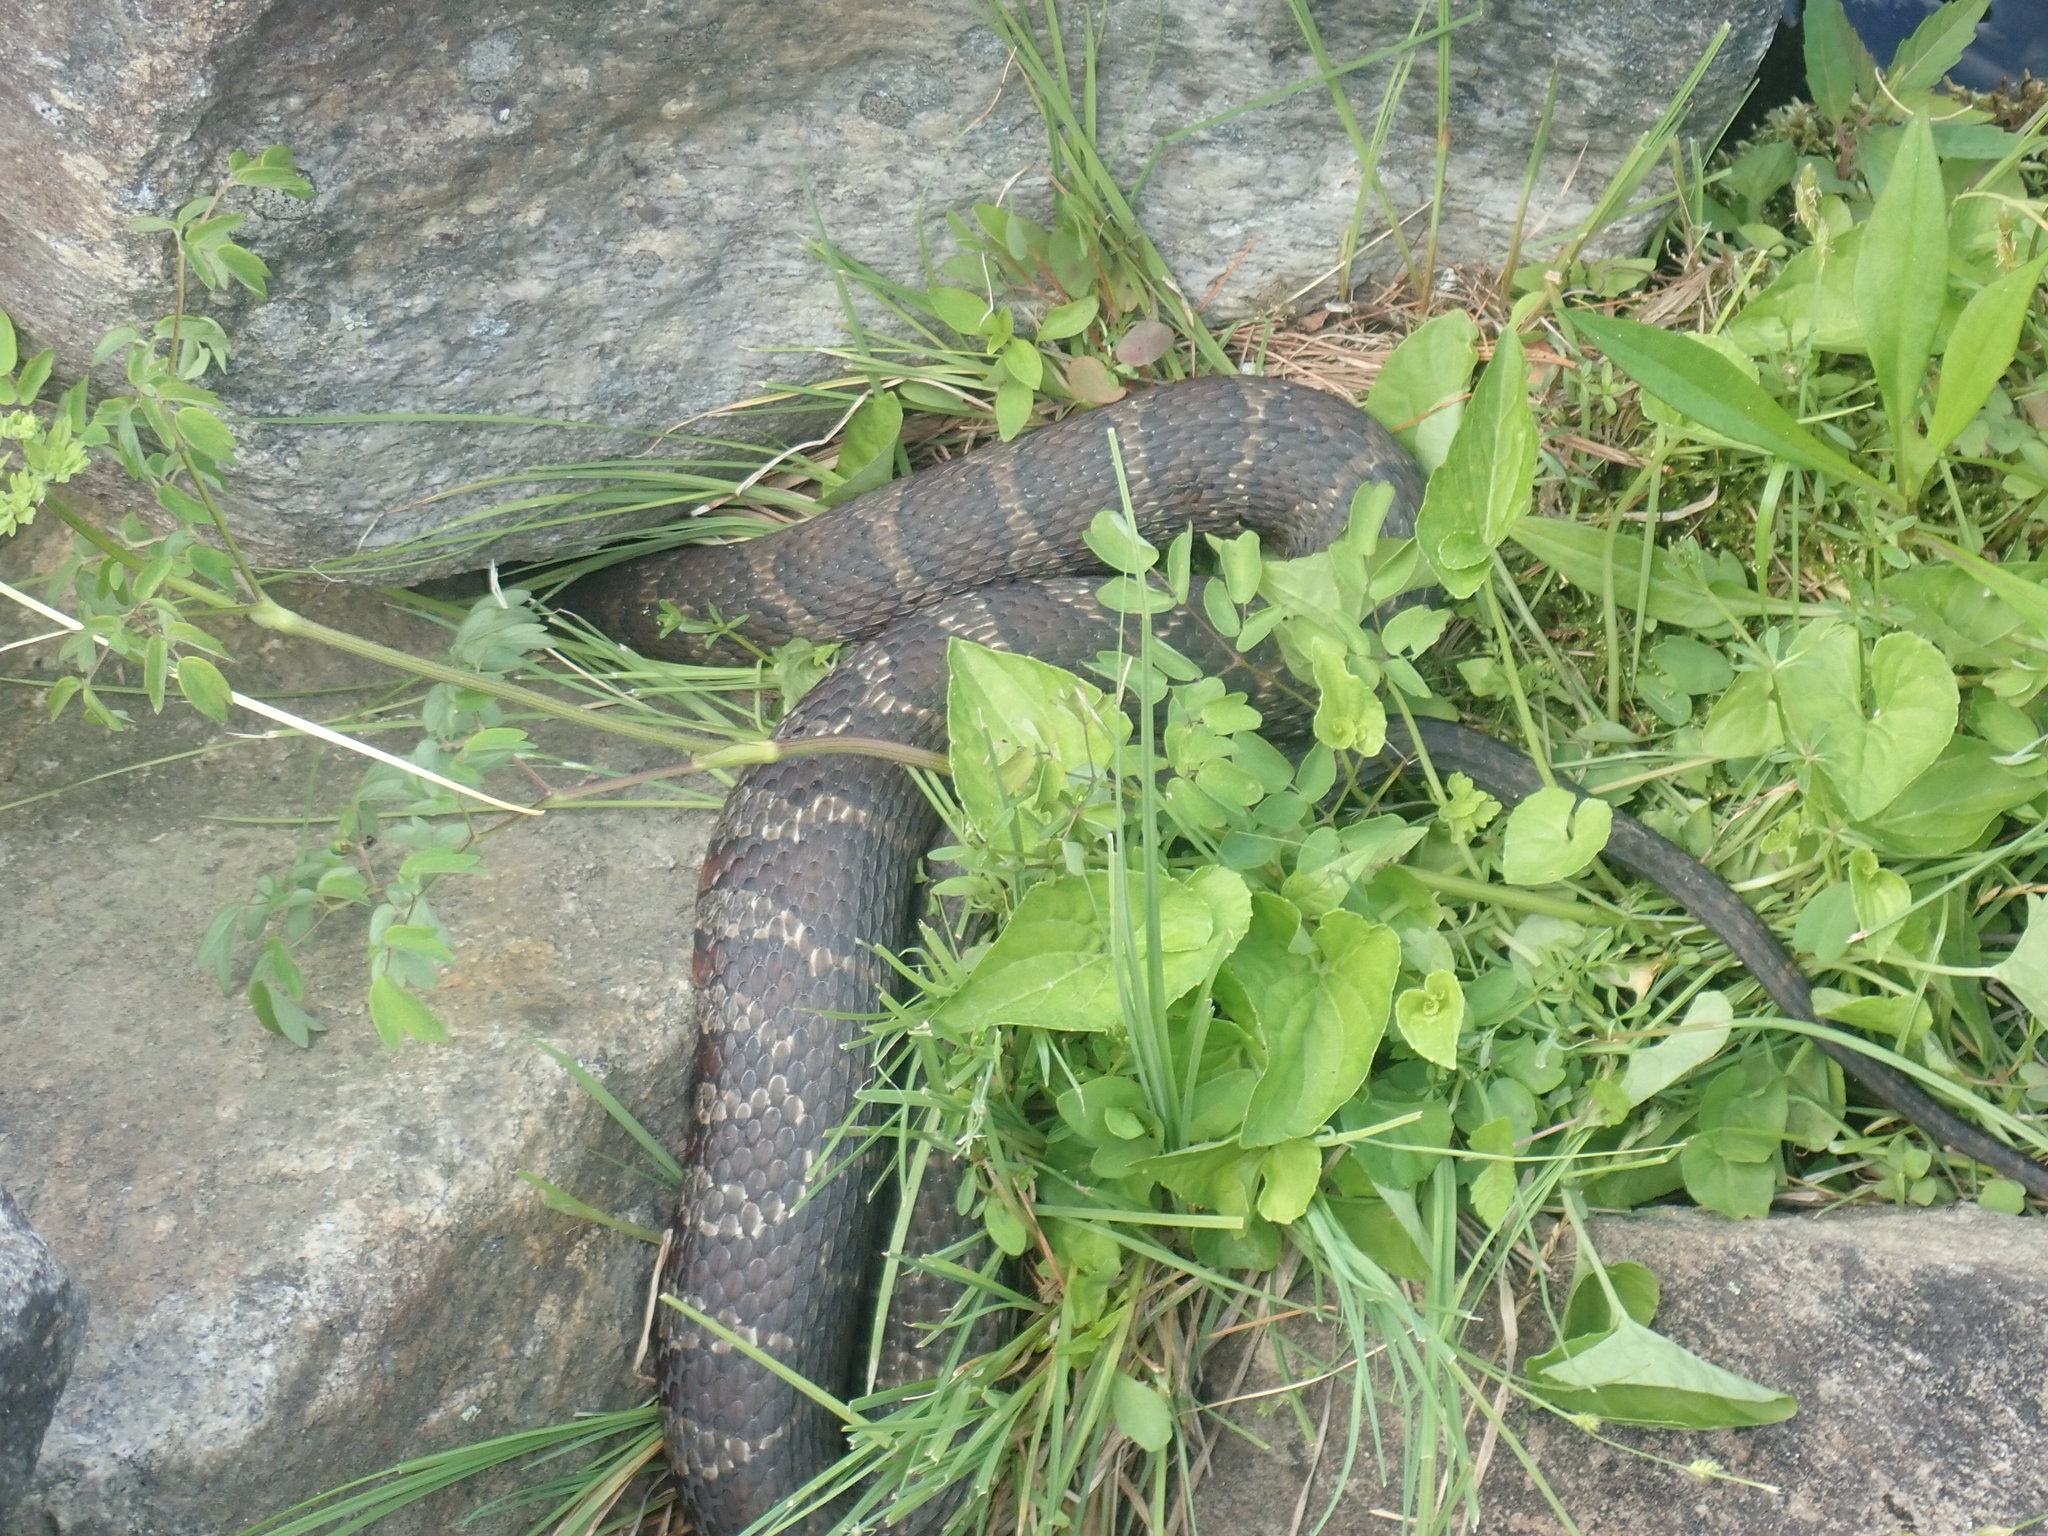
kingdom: Animalia
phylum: Chordata
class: Squamata
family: Colubridae
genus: Nerodia
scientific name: Nerodia sipedon
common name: Northern water snake
